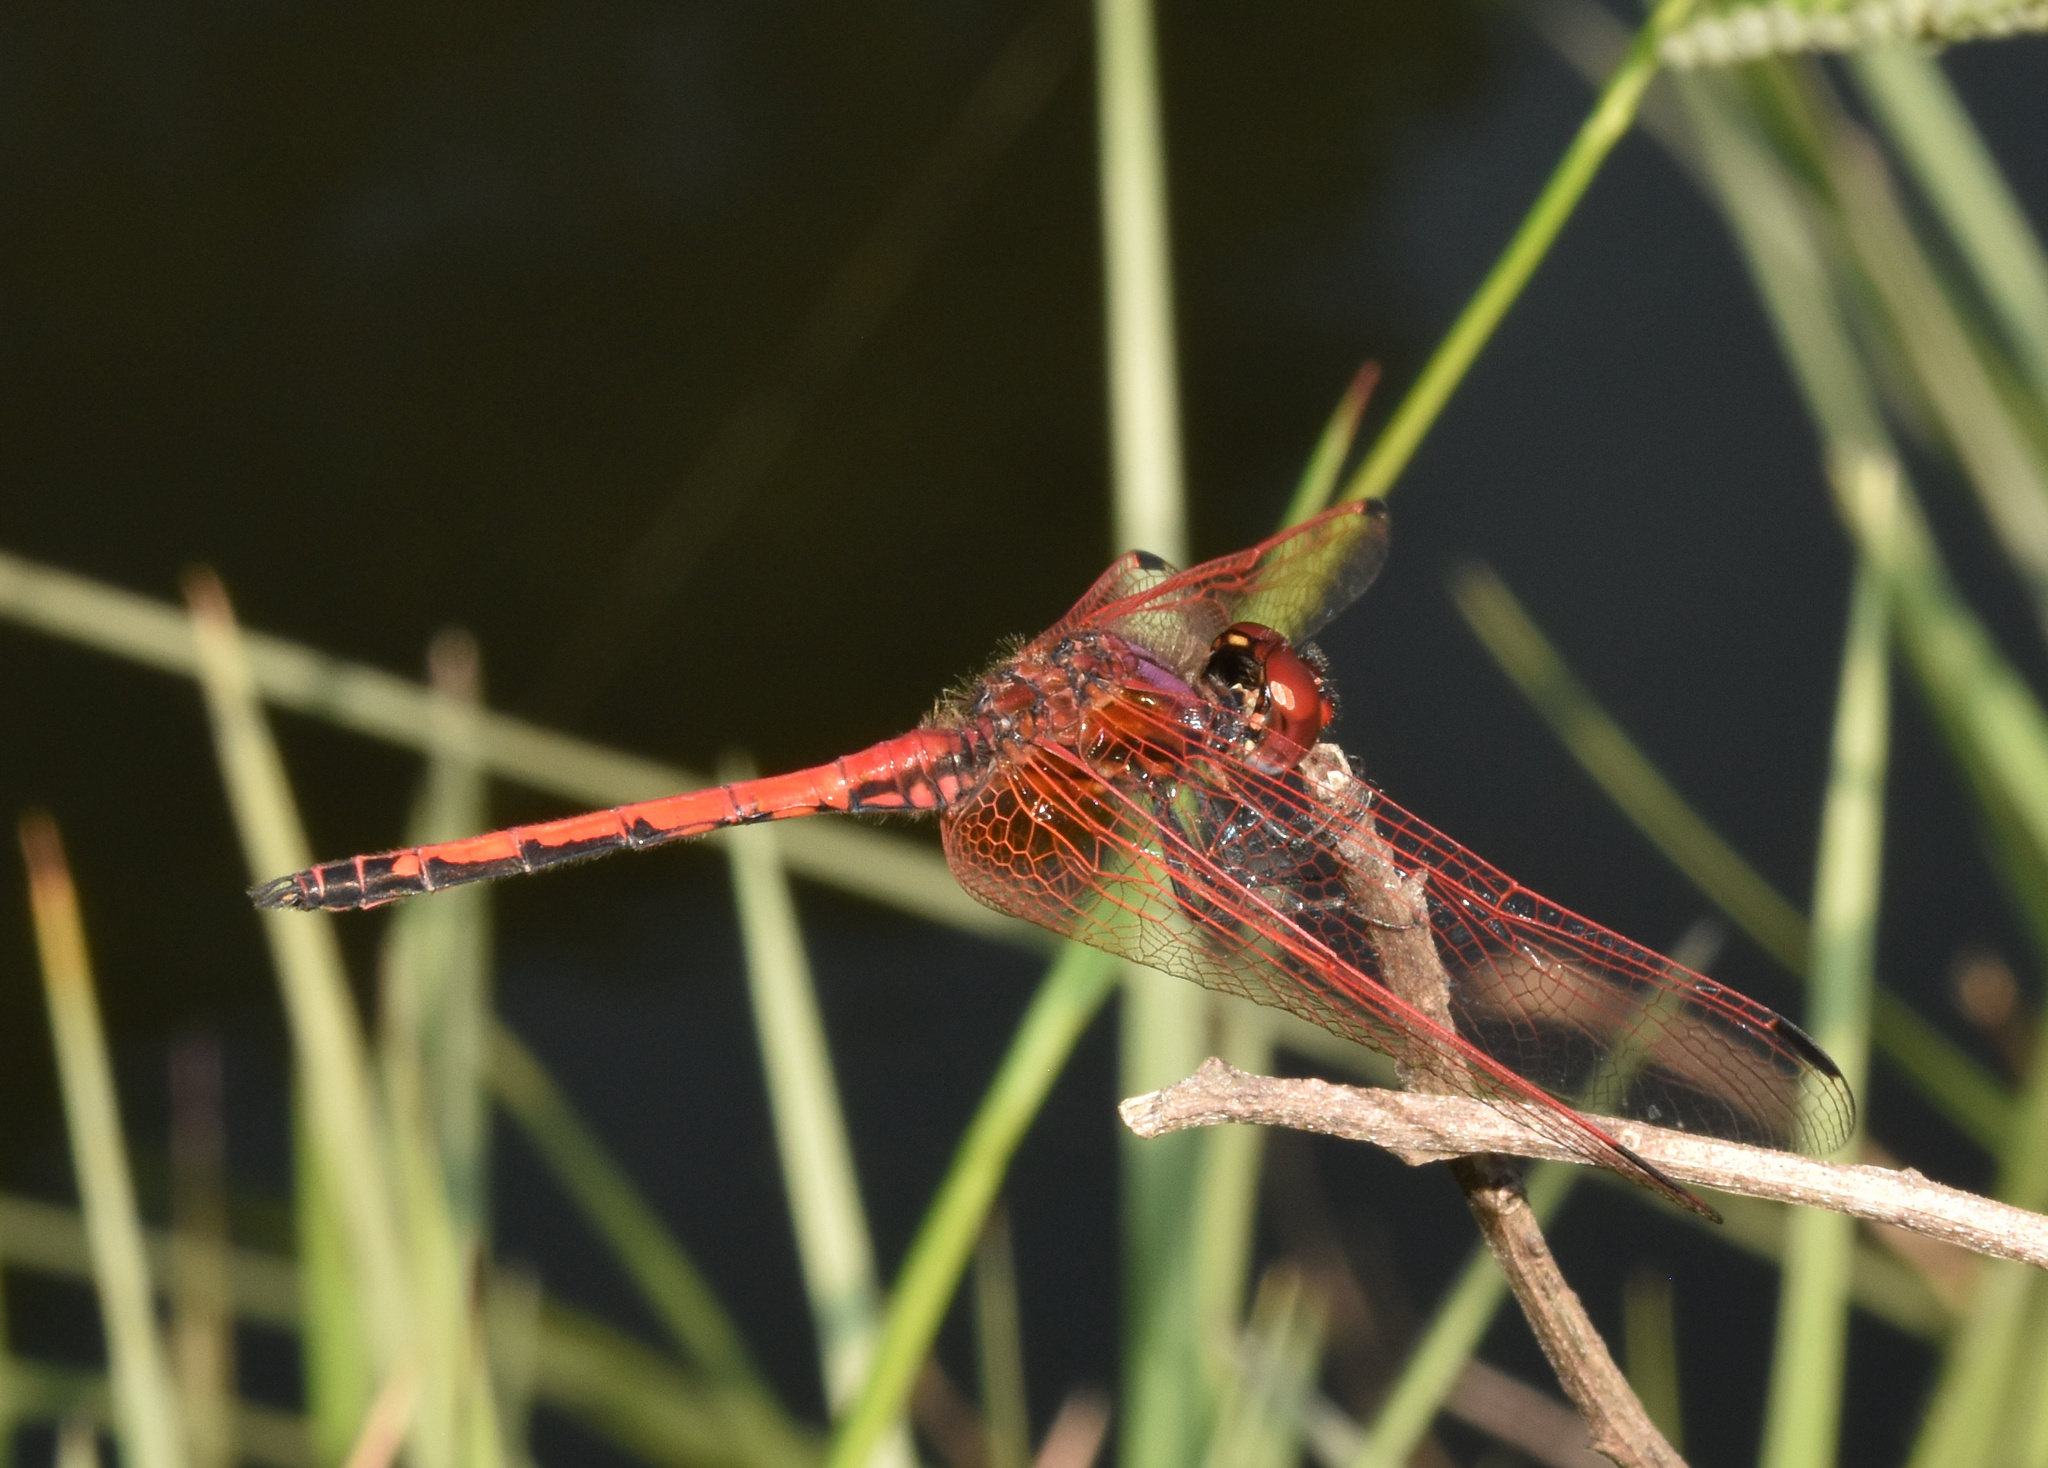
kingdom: Animalia
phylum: Arthropoda
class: Insecta
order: Odonata
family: Libellulidae
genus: Trithemis
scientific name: Trithemis arteriosa
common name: Red-veined dropwing
